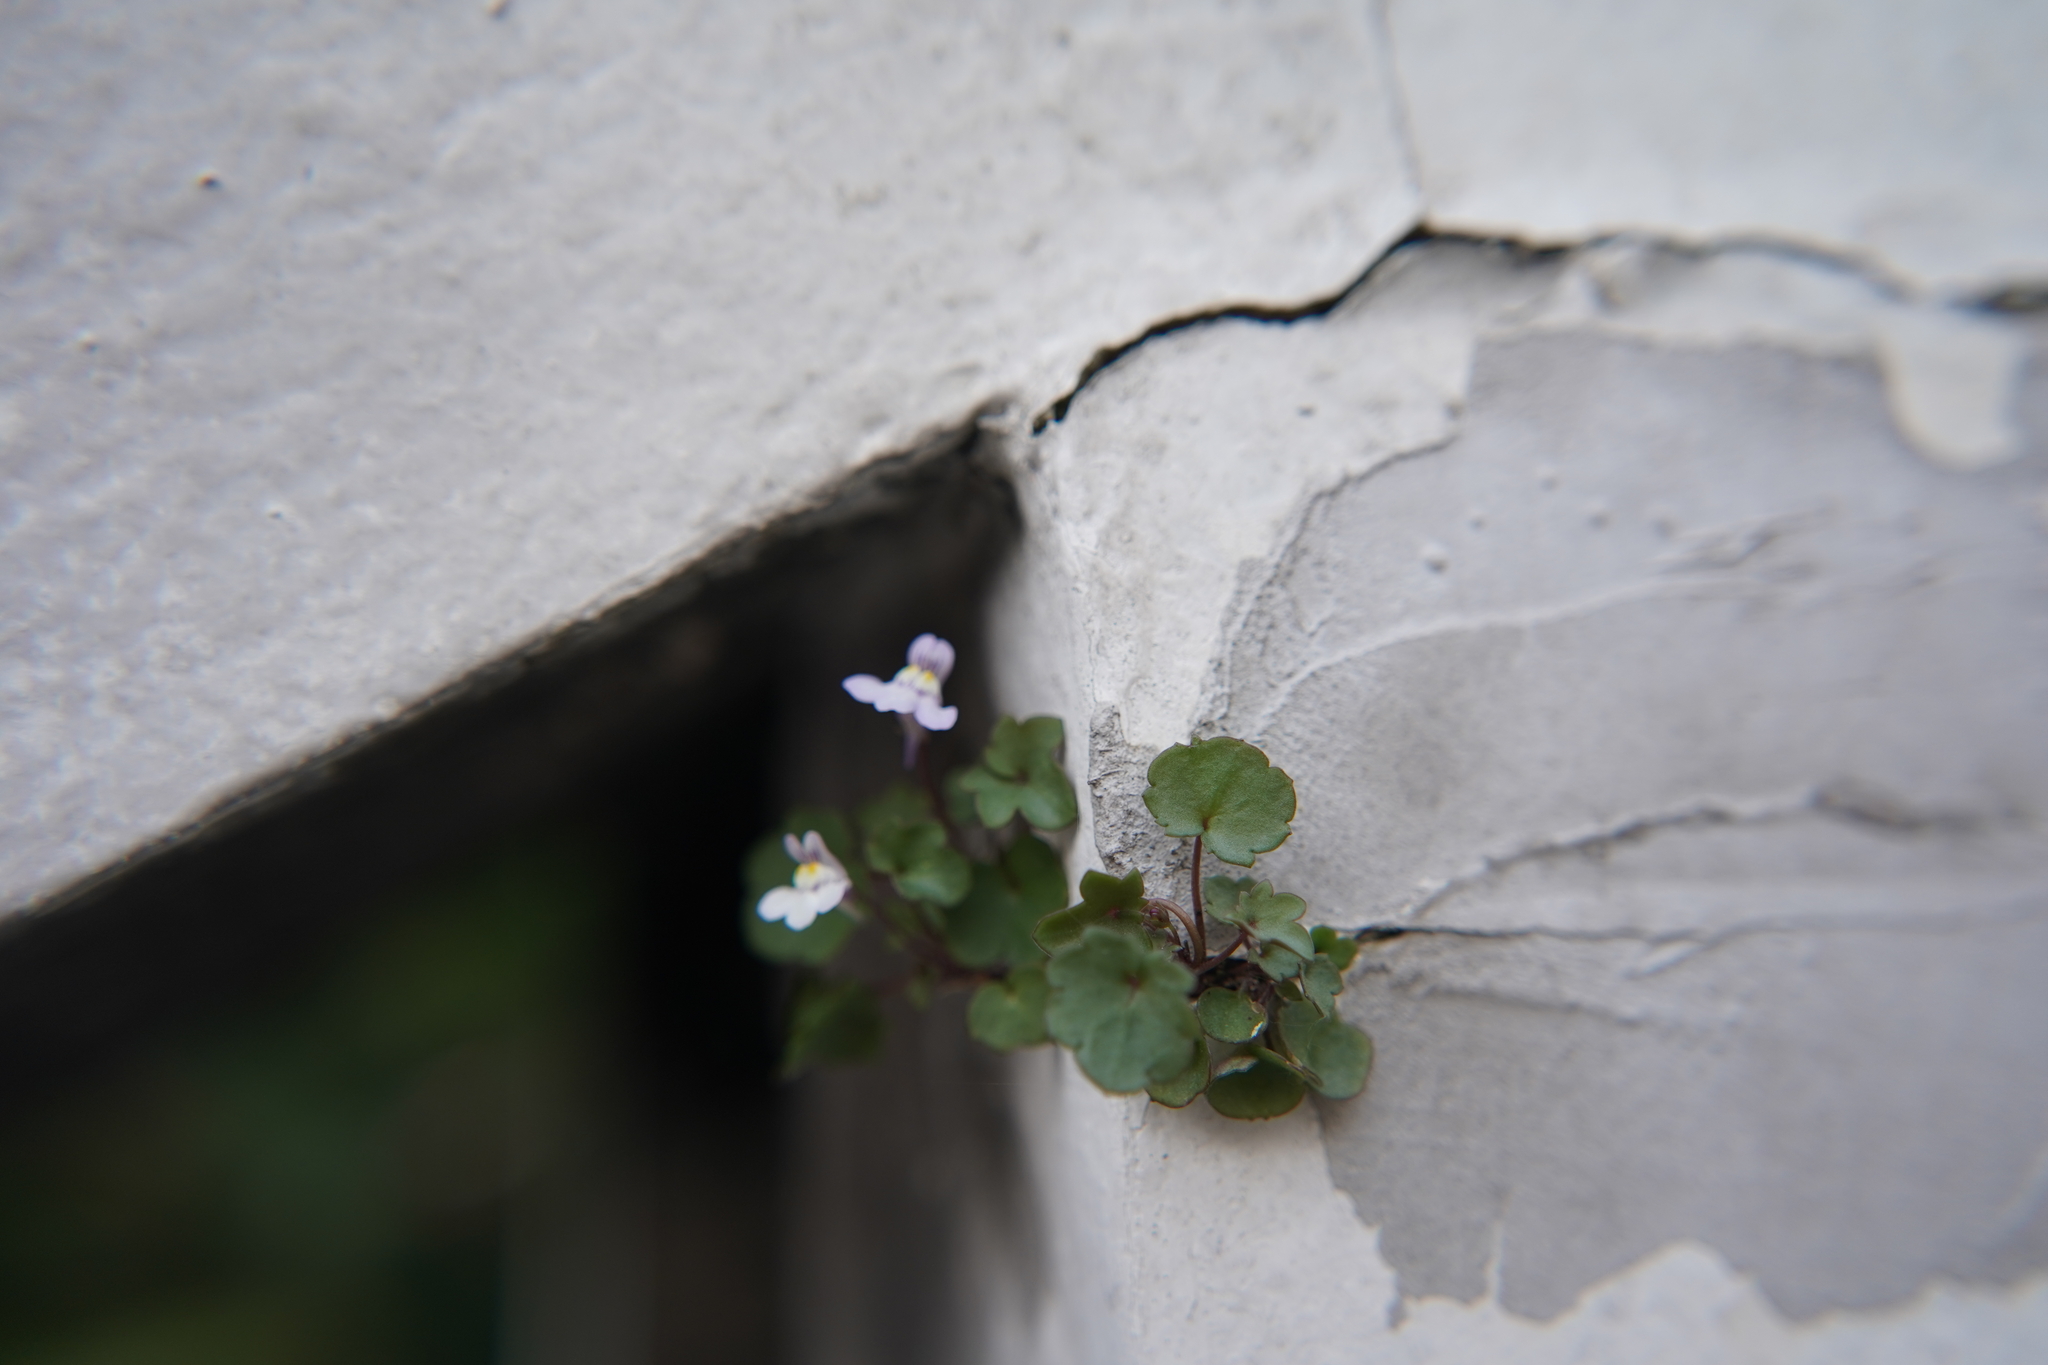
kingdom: Plantae
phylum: Tracheophyta
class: Magnoliopsida
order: Lamiales
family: Plantaginaceae
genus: Cymbalaria
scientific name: Cymbalaria muralis
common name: Ivy-leaved toadflax
